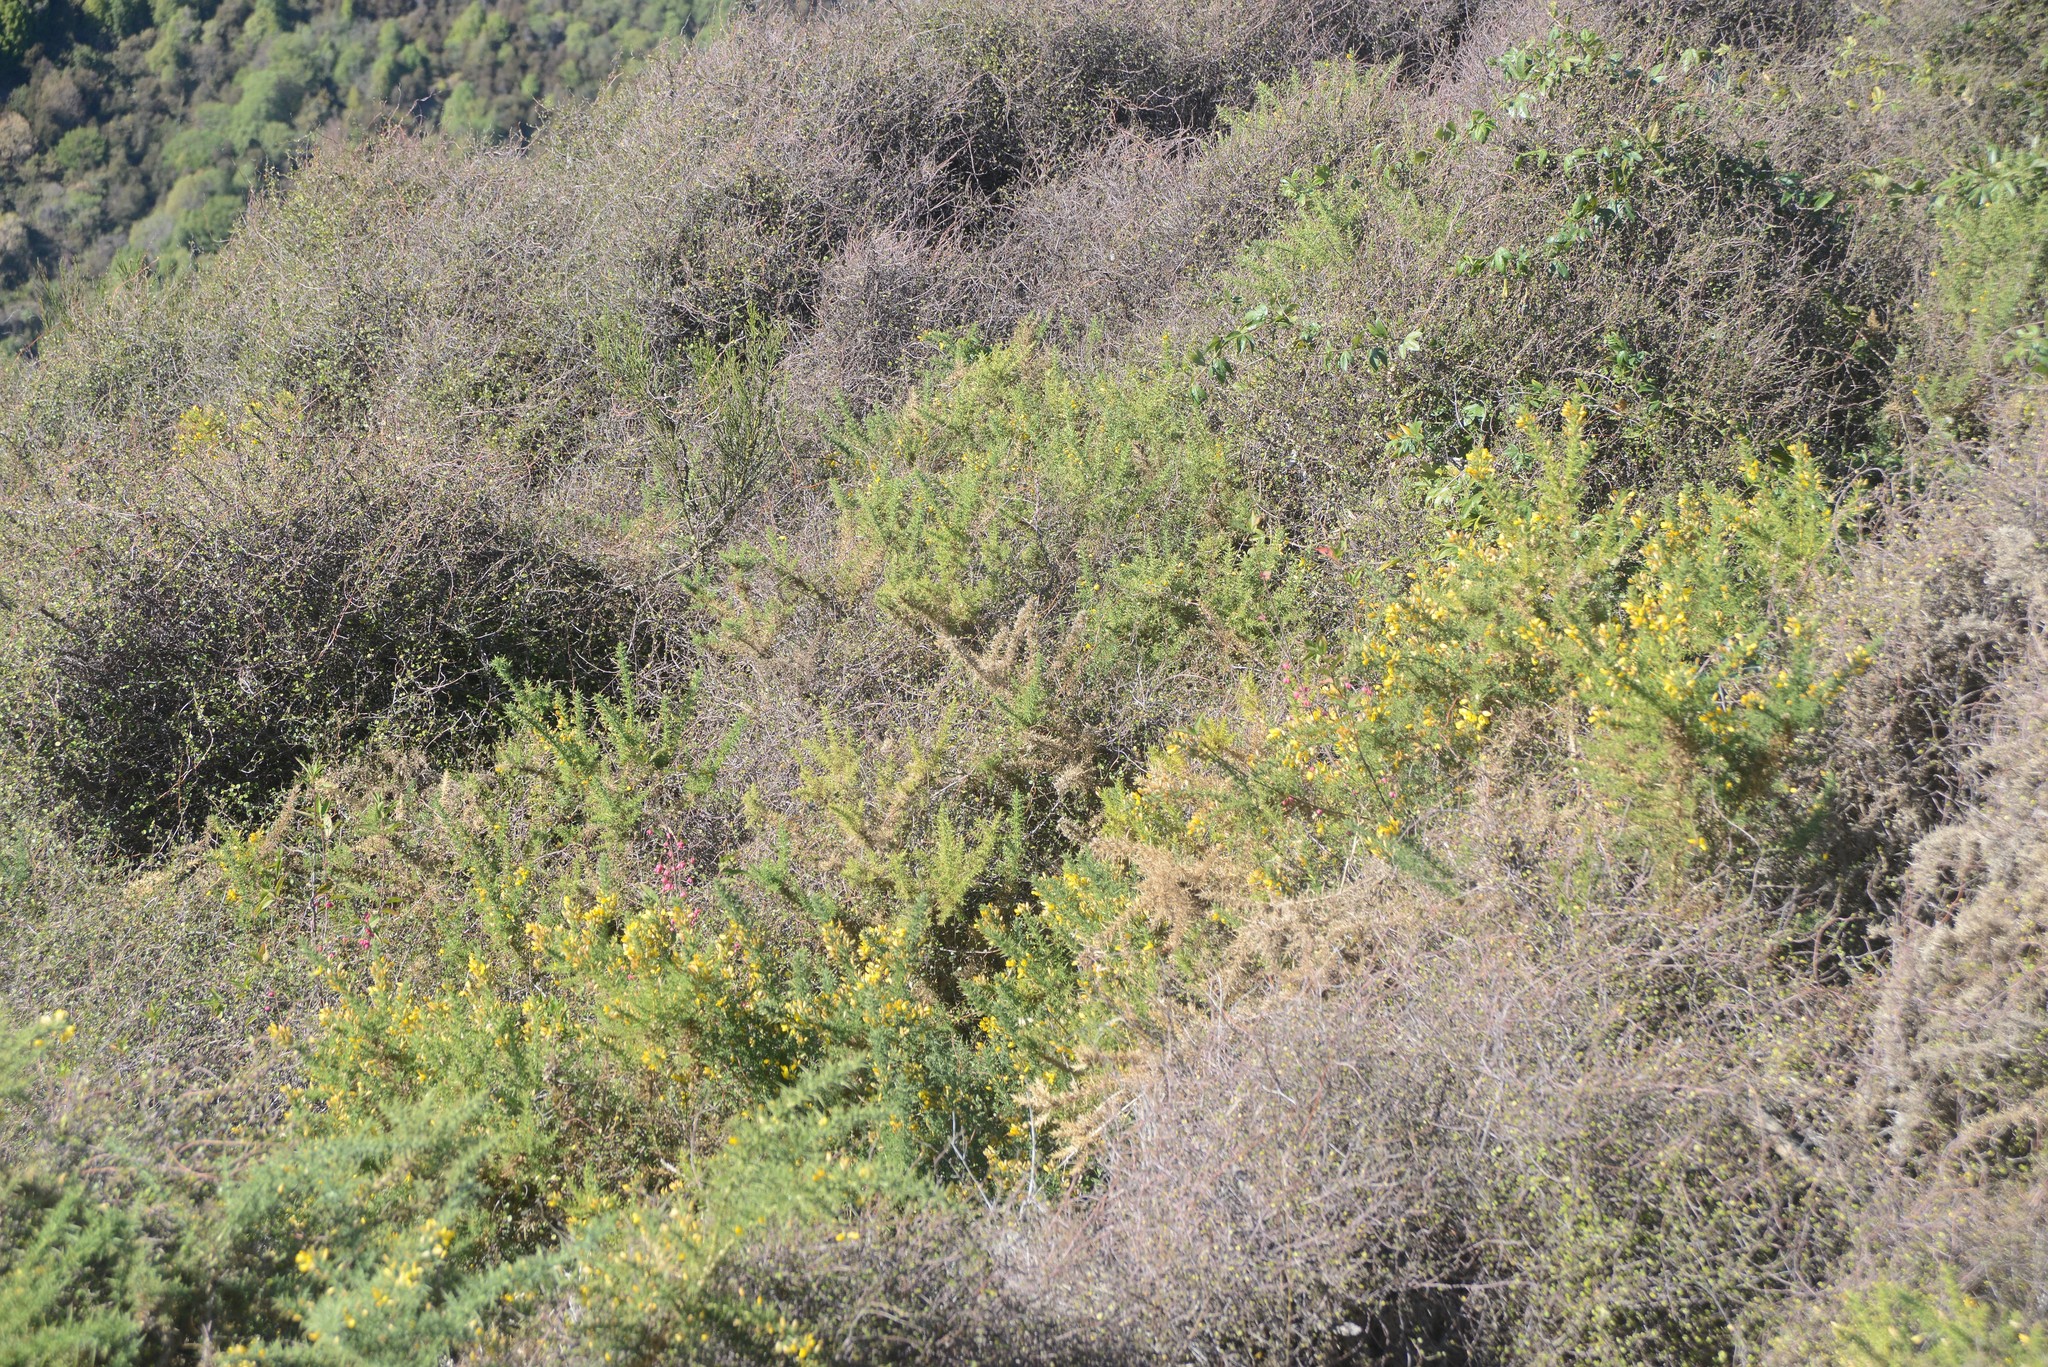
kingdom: Plantae
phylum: Tracheophyta
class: Magnoliopsida
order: Fabales
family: Fabaceae
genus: Ulex
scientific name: Ulex europaeus
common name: Common gorse
